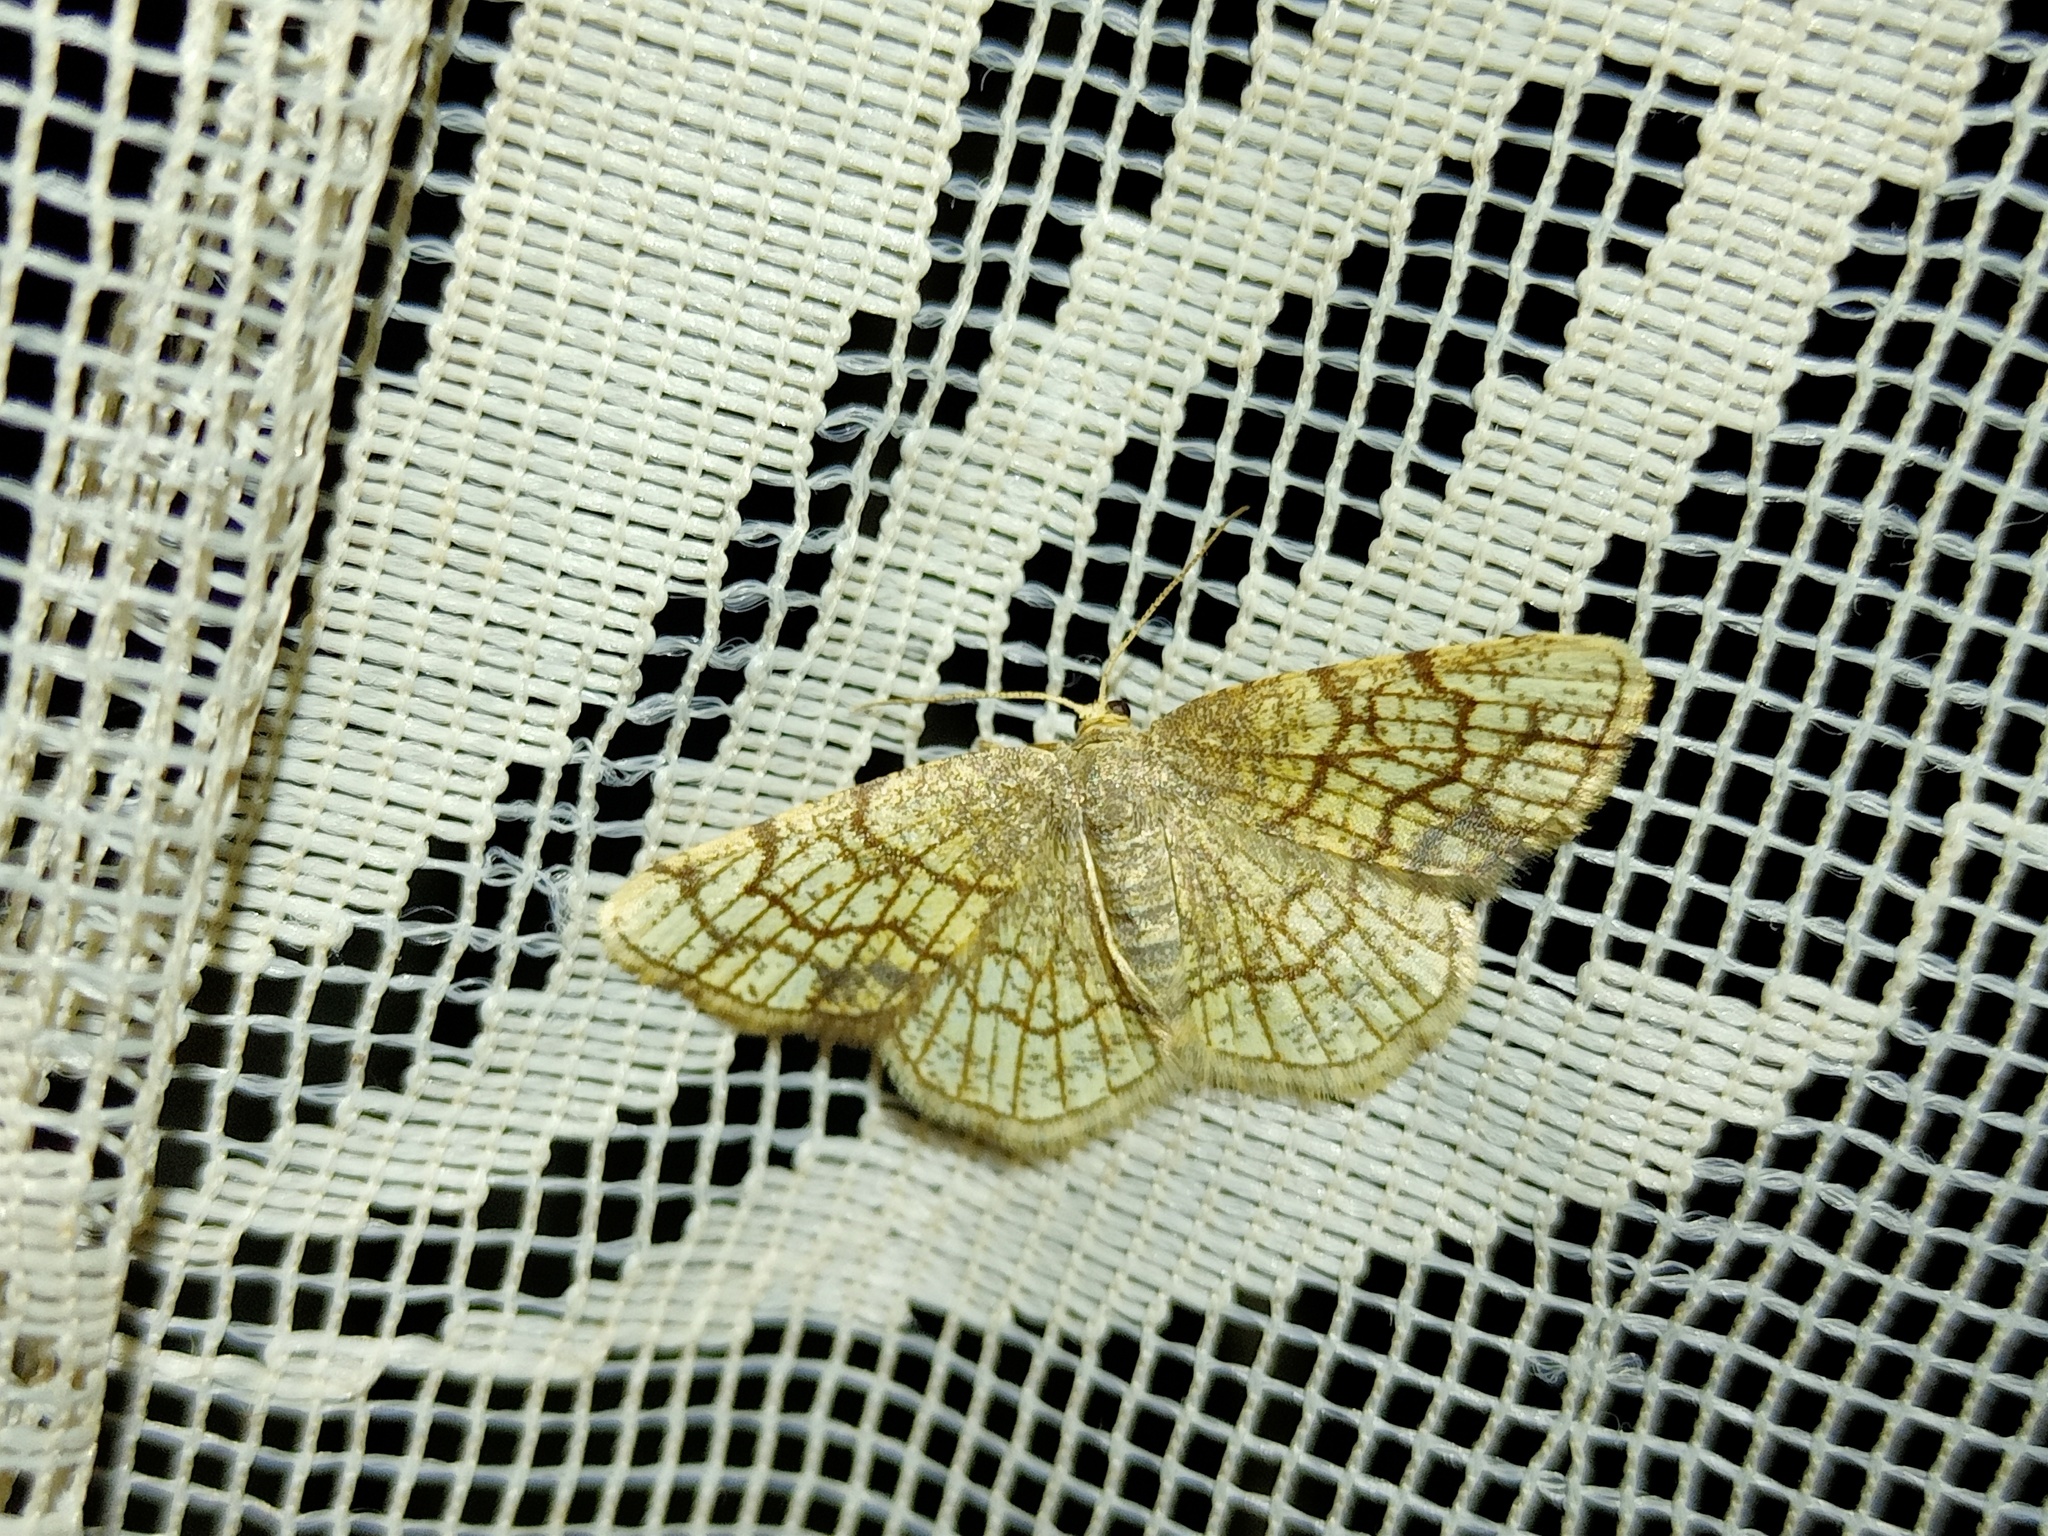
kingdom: Animalia
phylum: Arthropoda
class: Insecta
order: Lepidoptera
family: Geometridae
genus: Stegania
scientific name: Stegania dilectaria
